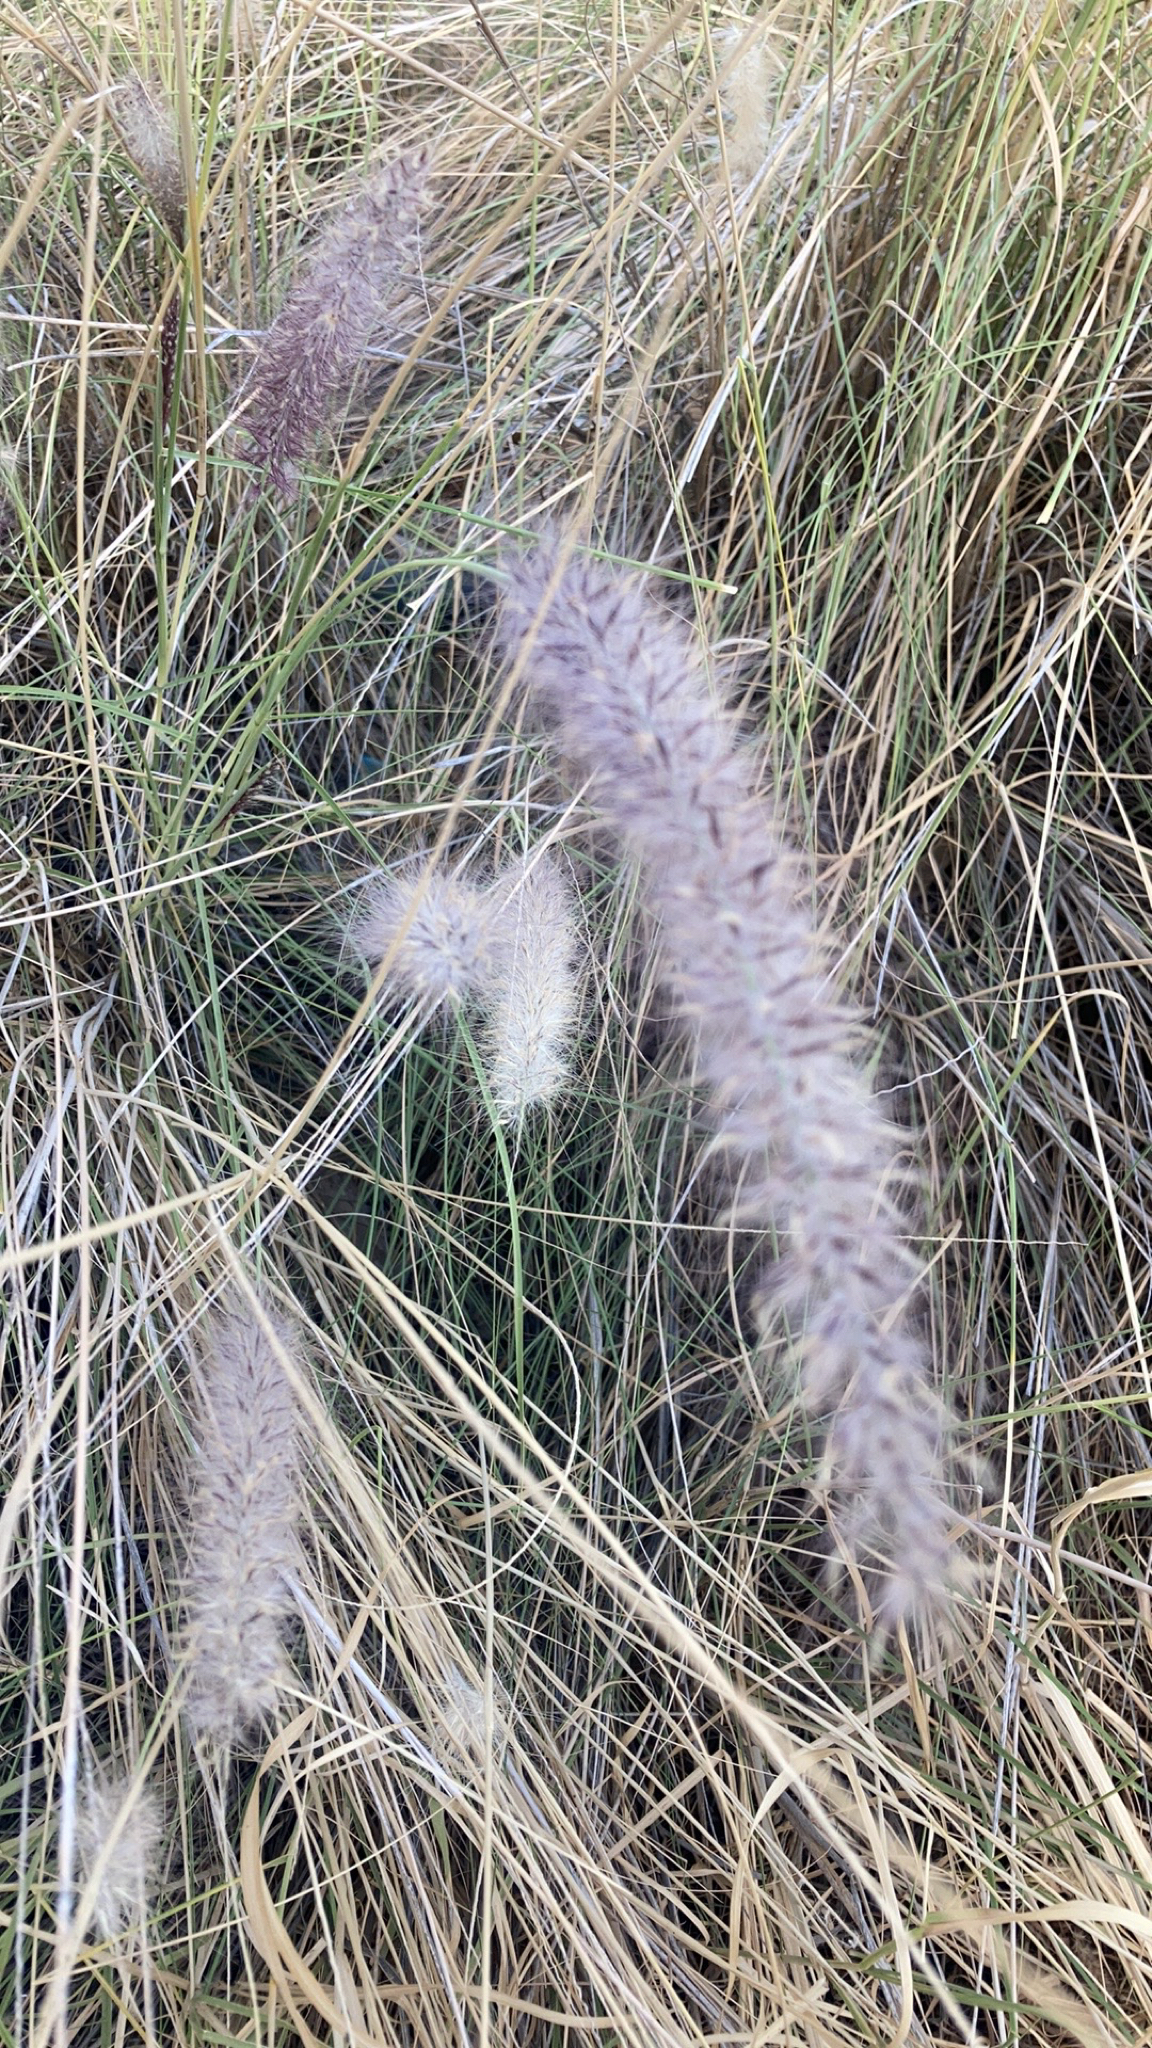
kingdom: Plantae
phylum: Tracheophyta
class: Liliopsida
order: Poales
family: Poaceae
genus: Cenchrus
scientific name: Cenchrus setaceus
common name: Crimson fountaingrass
